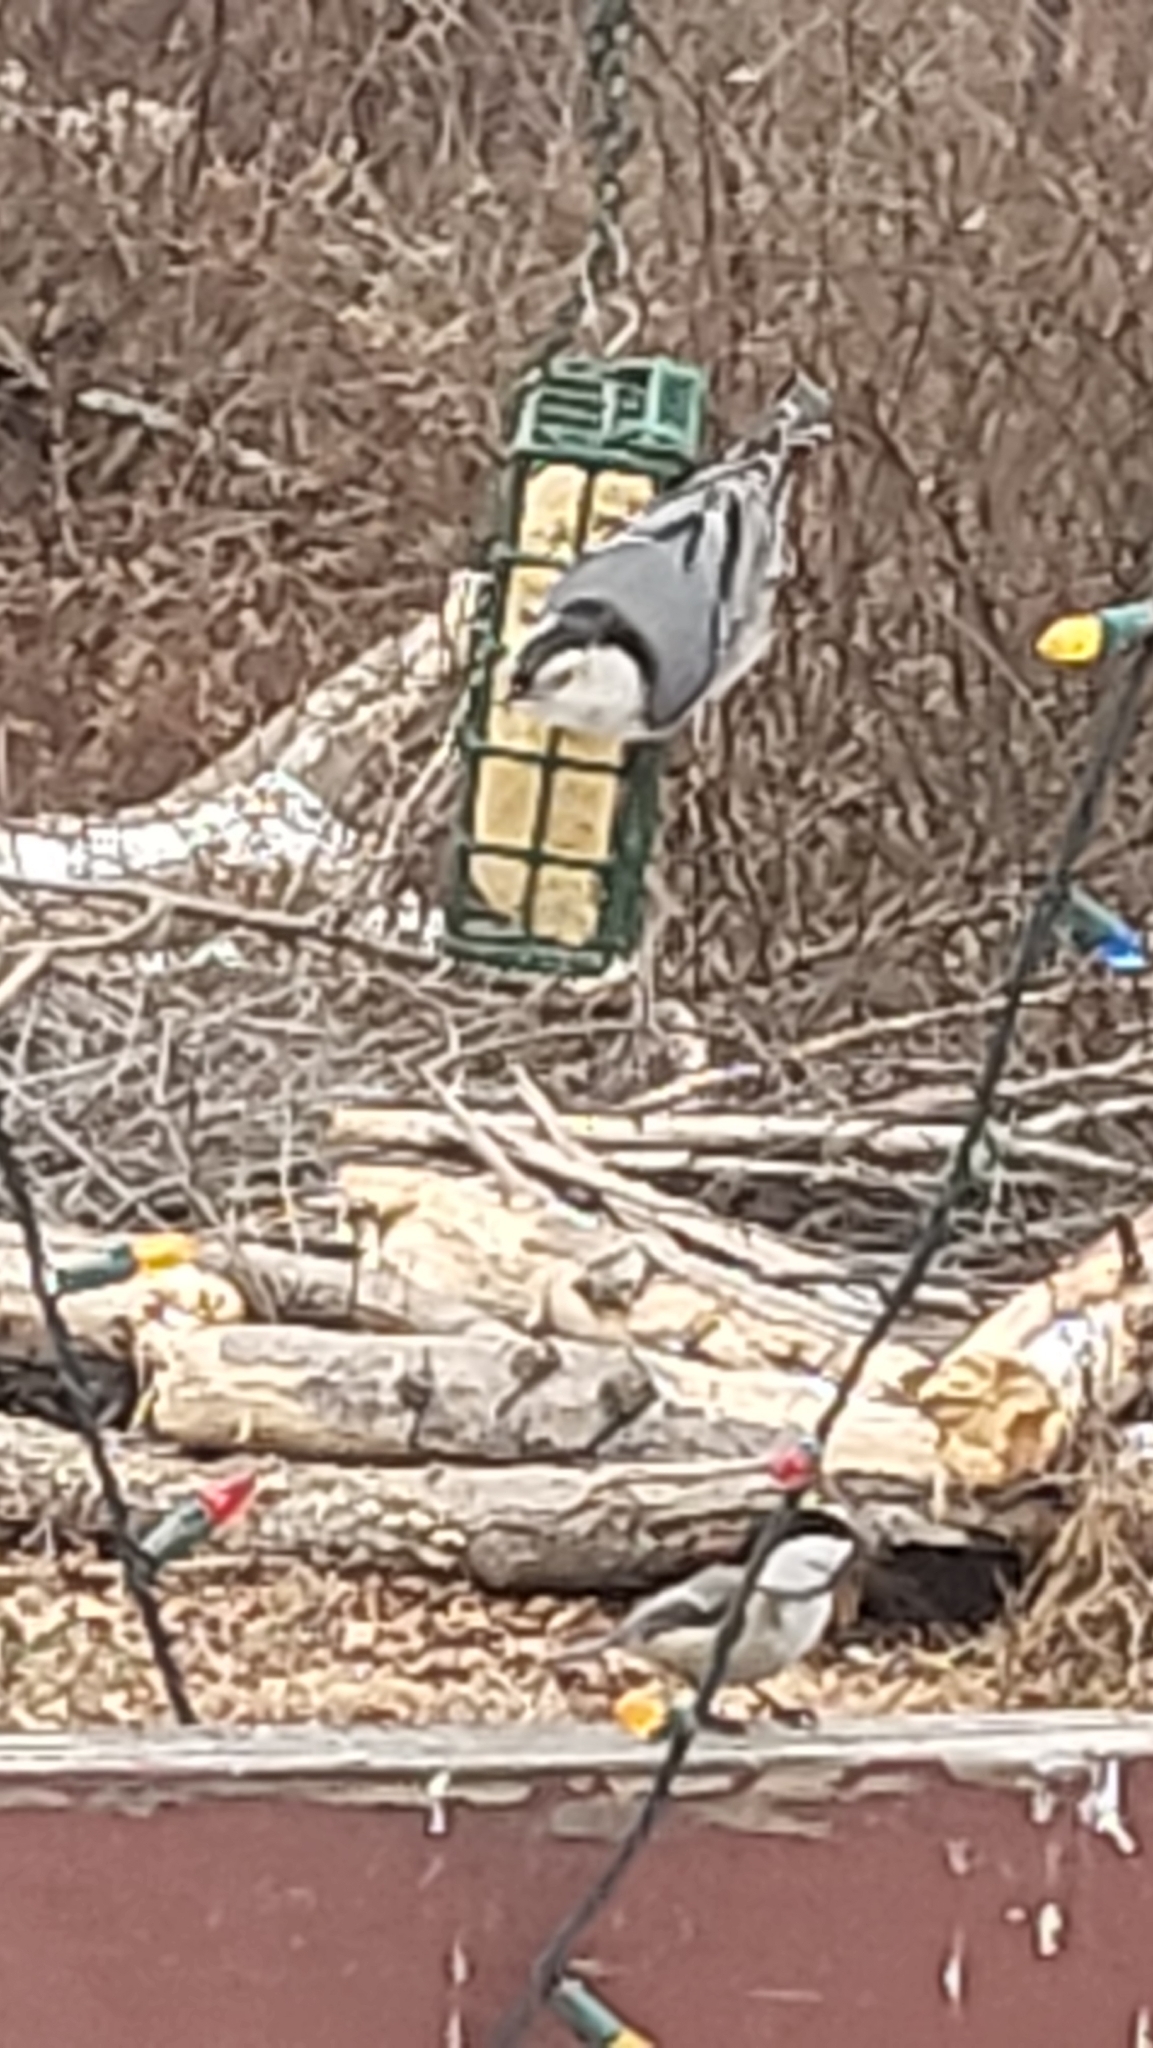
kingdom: Animalia
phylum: Chordata
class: Aves
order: Passeriformes
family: Sittidae
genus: Sitta
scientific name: Sitta carolinensis
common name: White-breasted nuthatch
